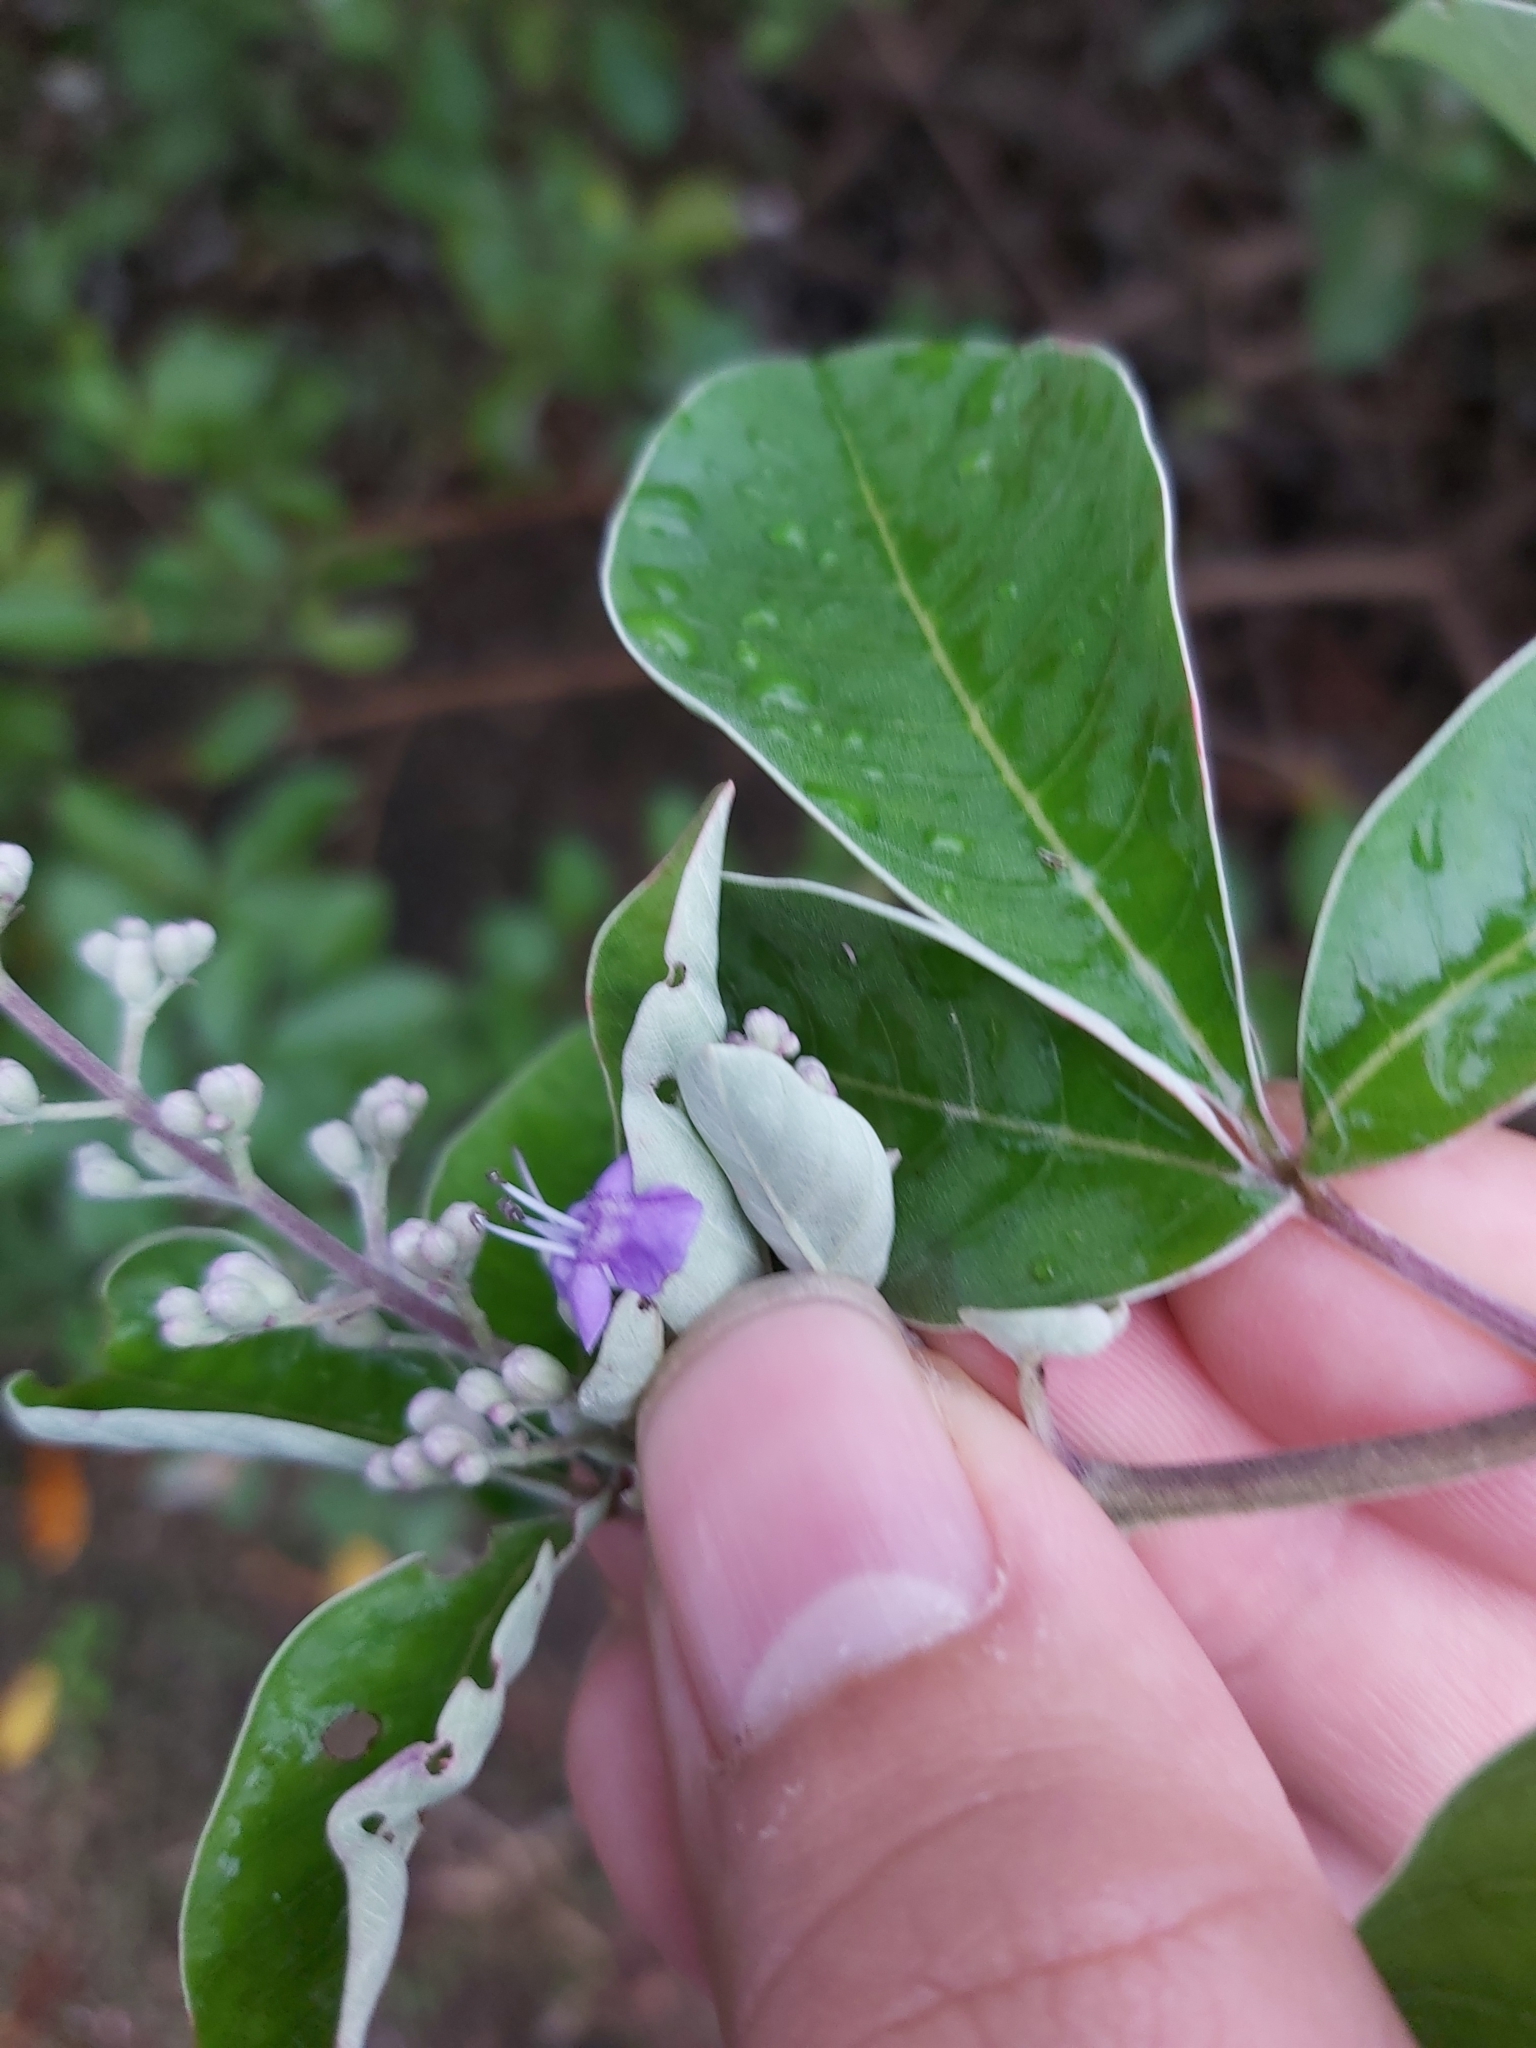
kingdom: Plantae
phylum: Tracheophyta
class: Magnoliopsida
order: Lamiales
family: Lamiaceae
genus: Vitex
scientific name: Vitex rotundifolia
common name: Beach vitex
